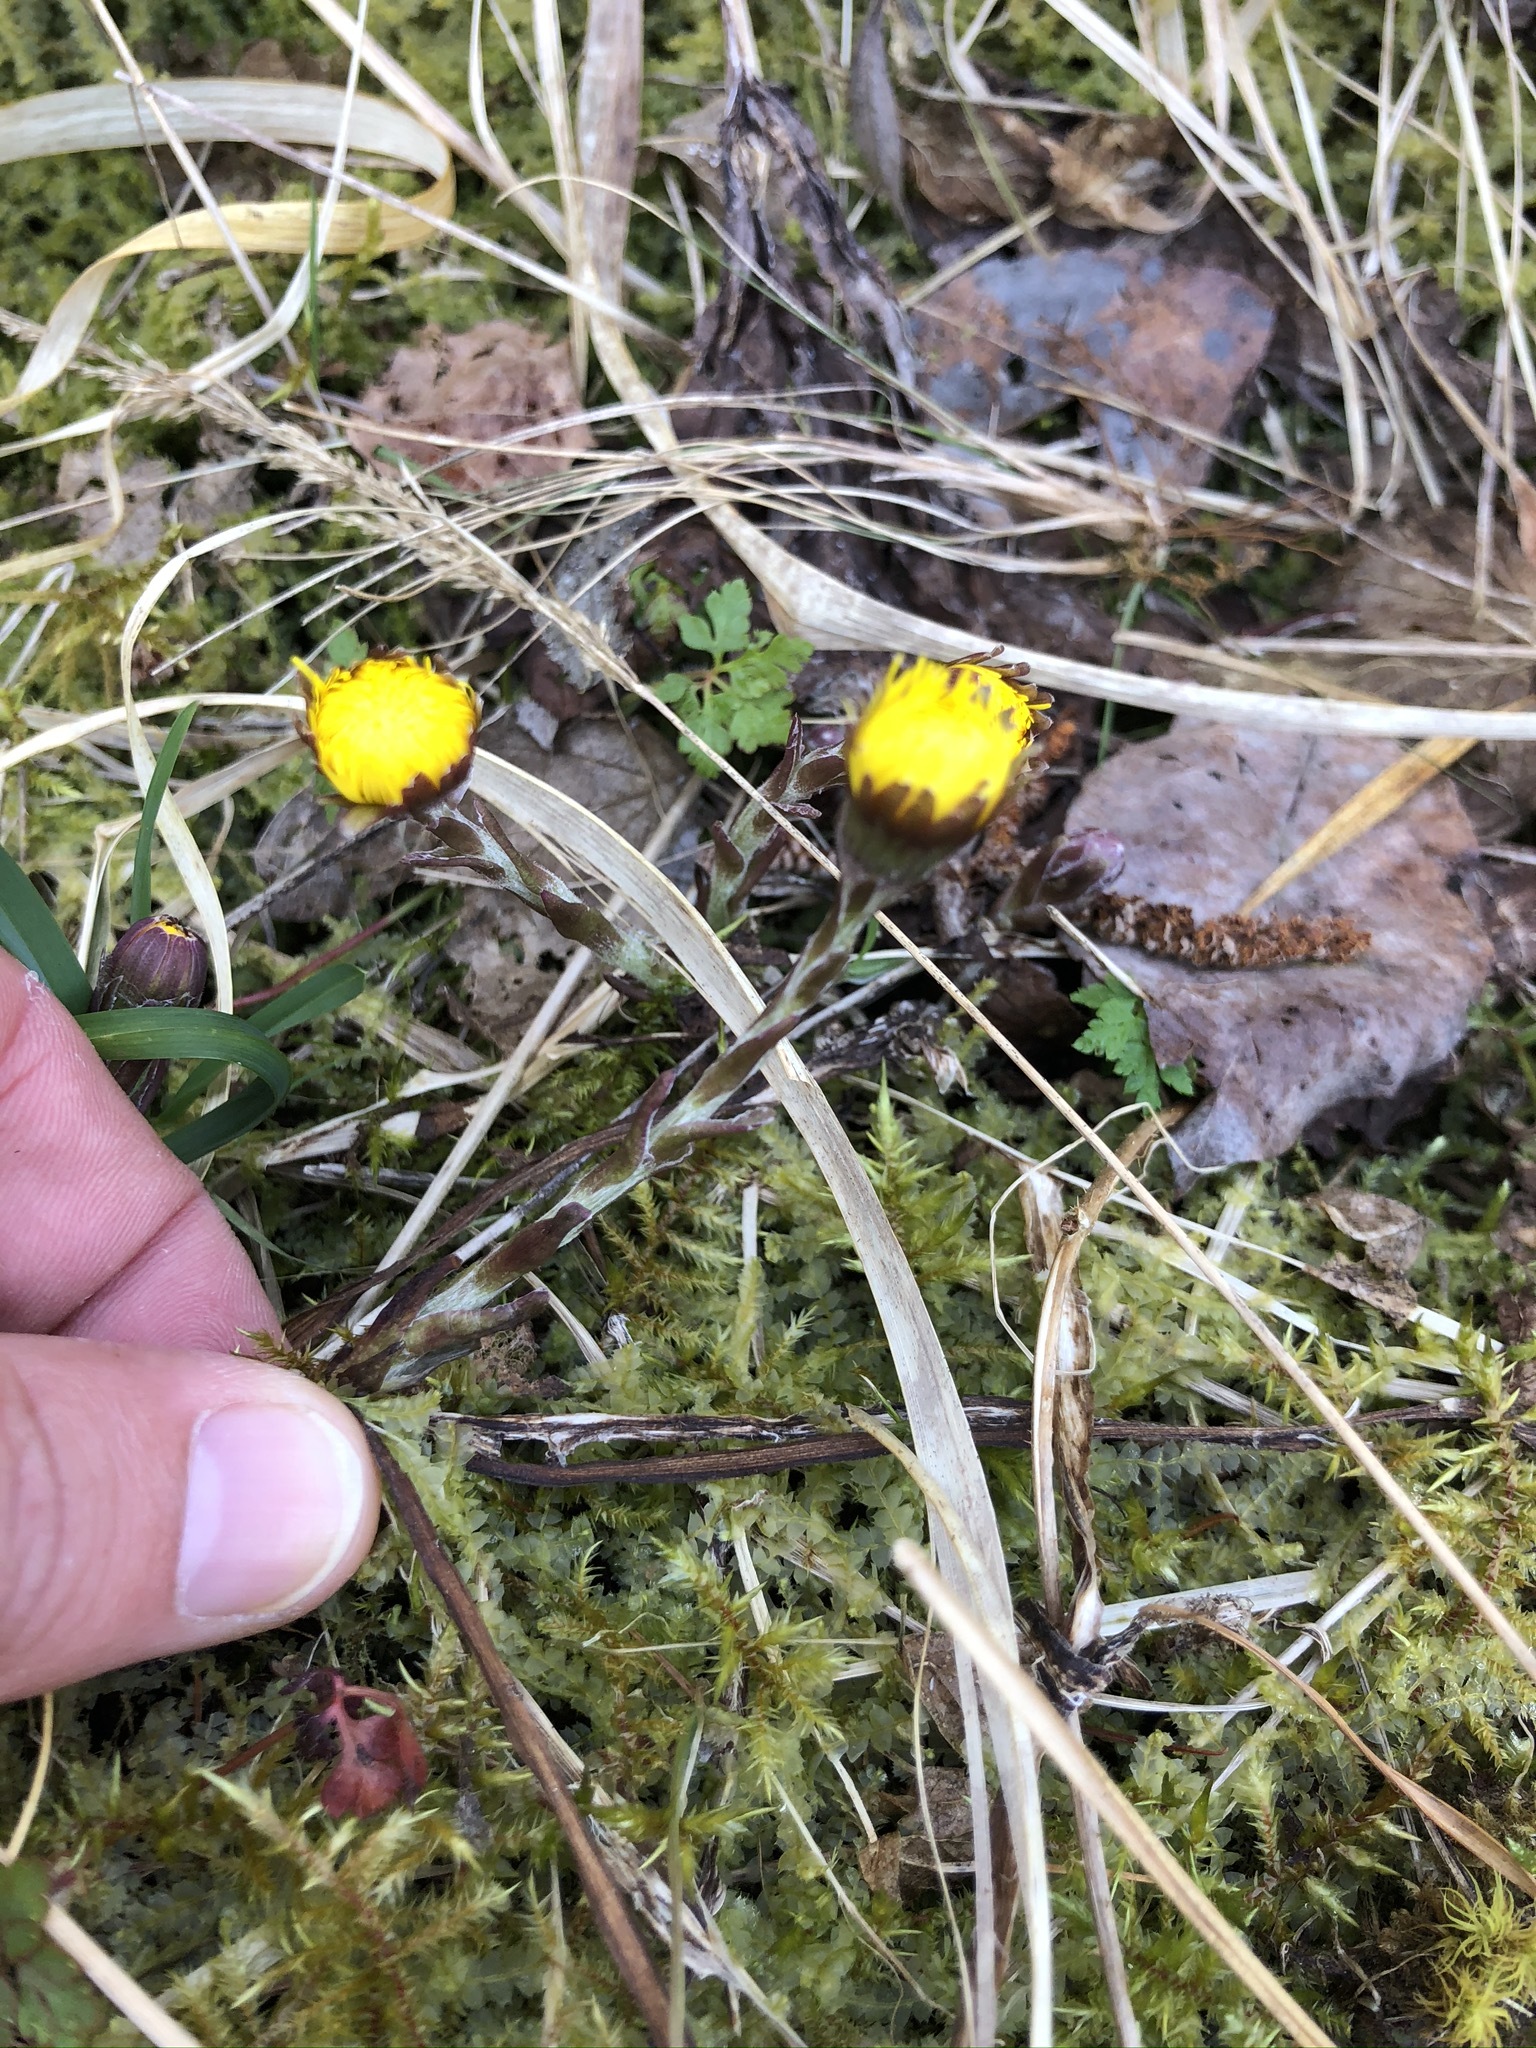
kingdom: Plantae
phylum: Tracheophyta
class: Magnoliopsida
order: Asterales
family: Asteraceae
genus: Tussilago
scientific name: Tussilago farfara
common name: Coltsfoot
